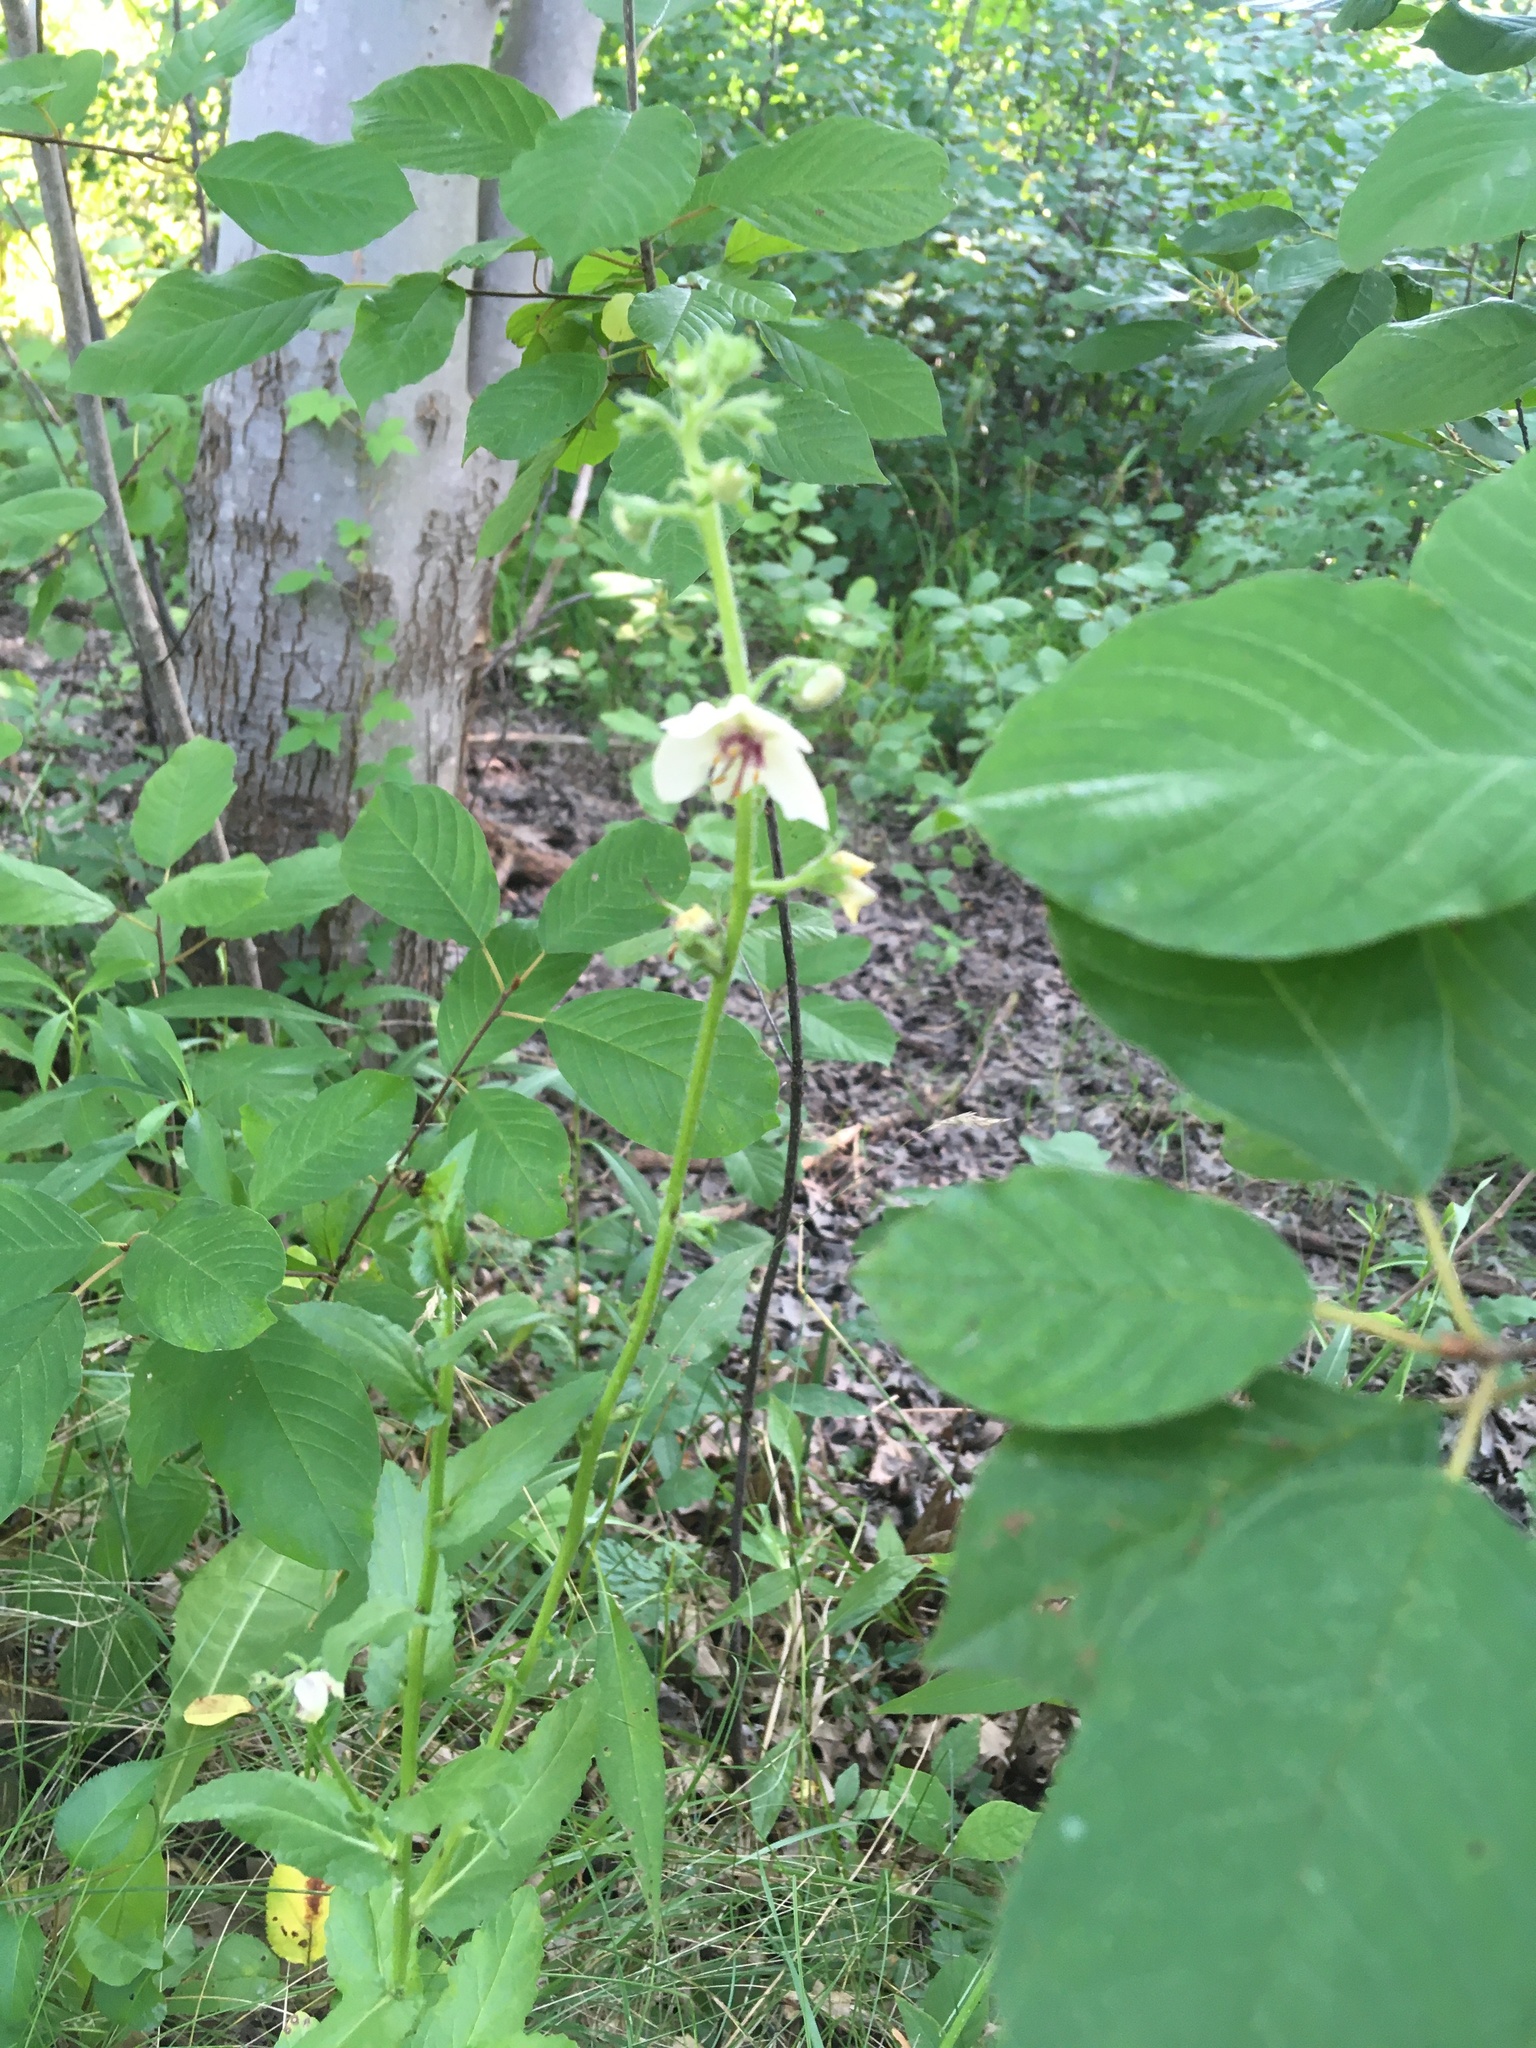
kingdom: Plantae
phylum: Tracheophyta
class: Magnoliopsida
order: Lamiales
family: Scrophulariaceae
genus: Verbascum
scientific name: Verbascum blattaria
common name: Moth mullein
